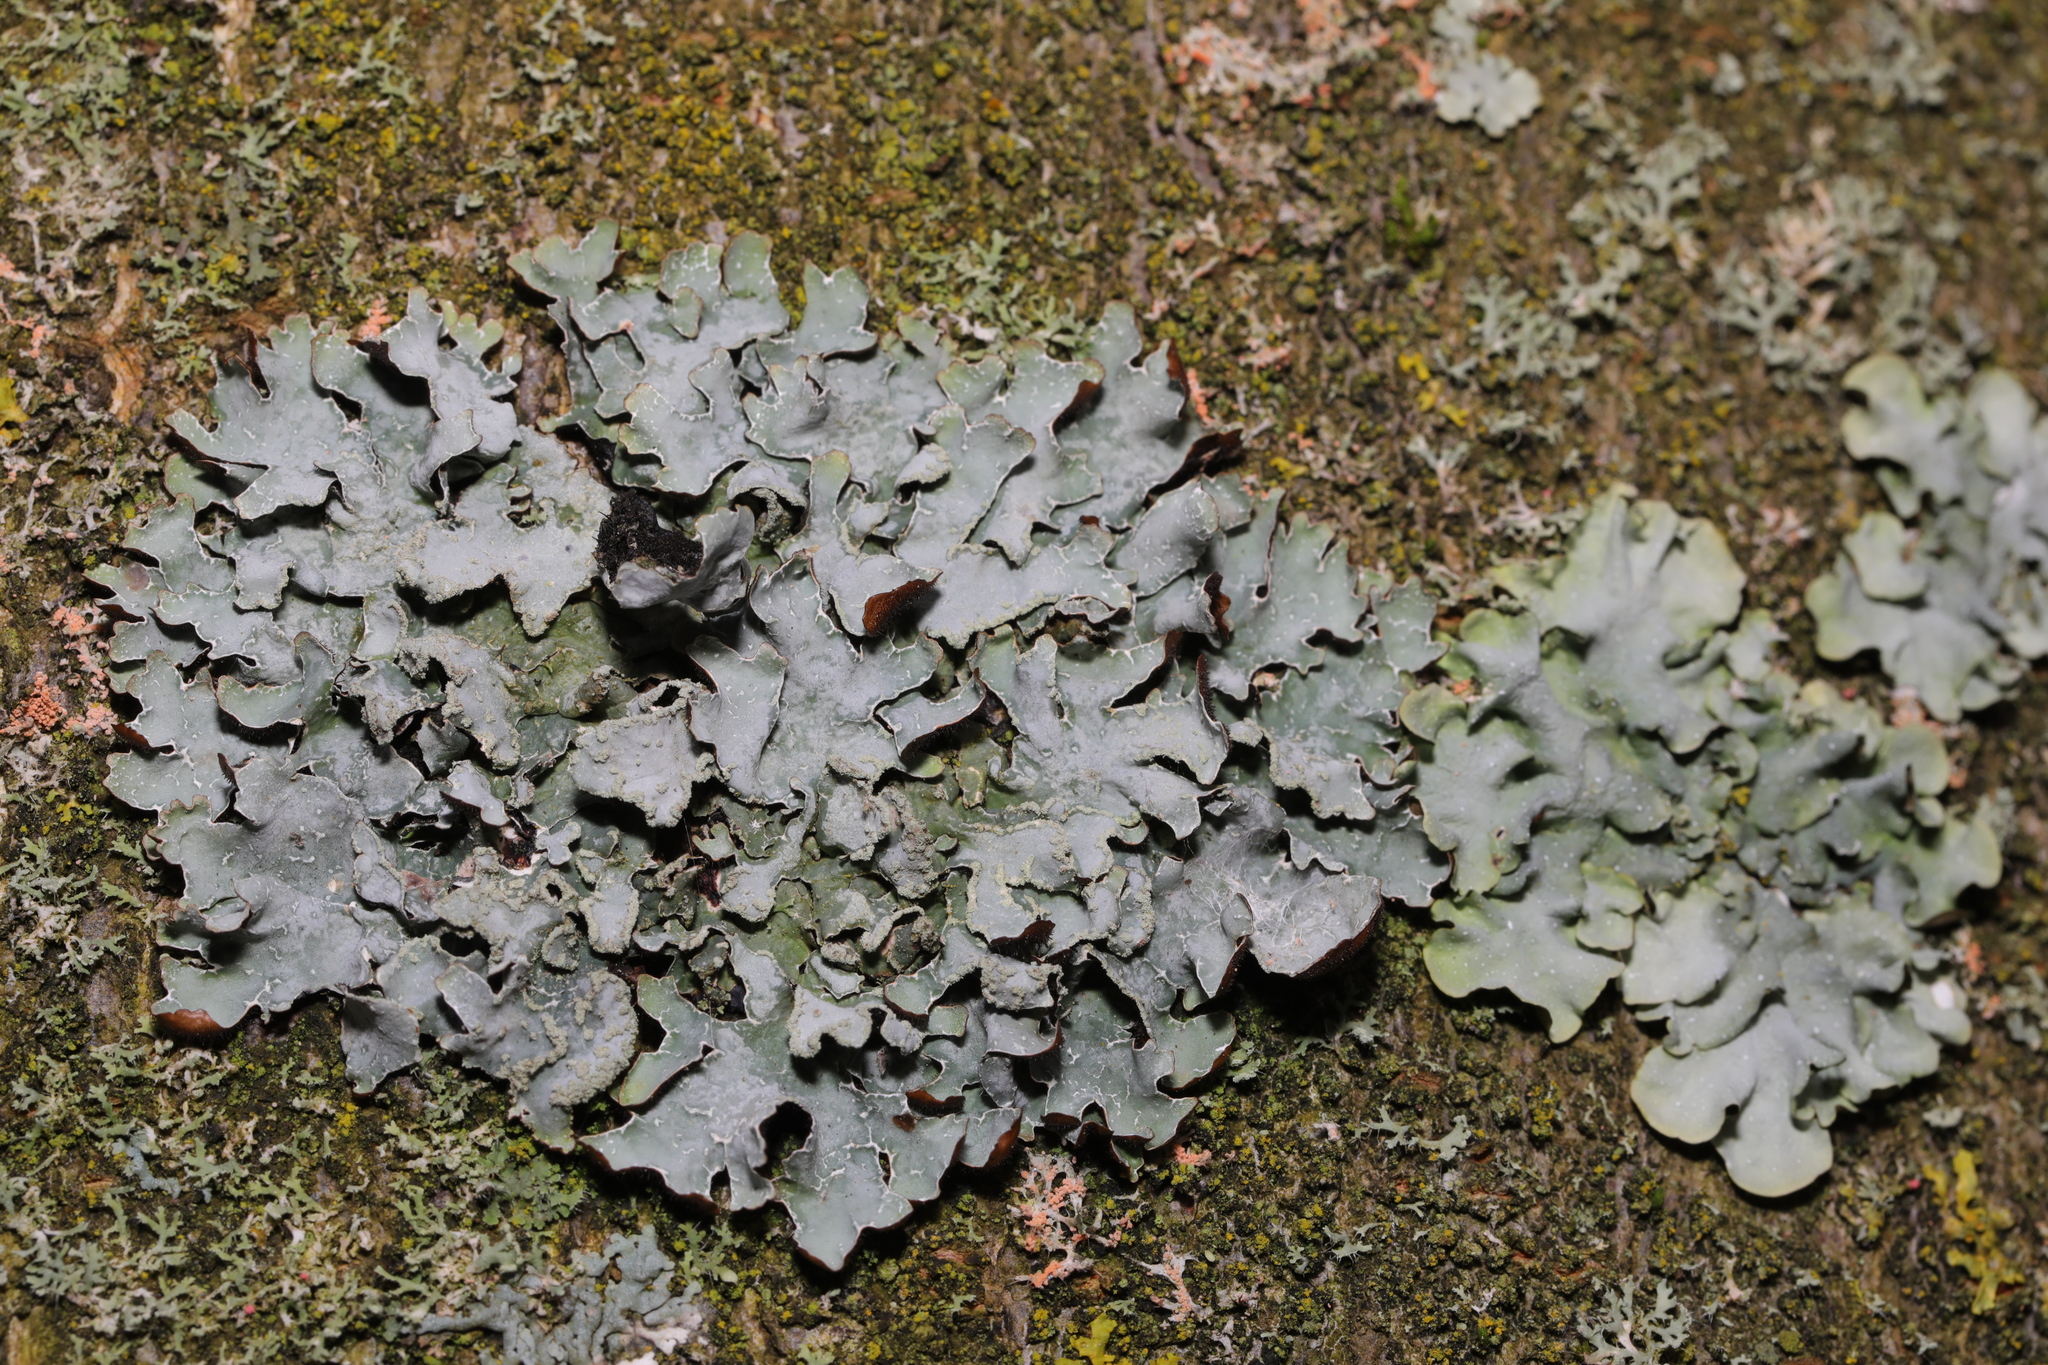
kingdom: Fungi
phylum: Ascomycota
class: Lecanoromycetes
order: Lecanorales
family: Parmeliaceae
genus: Parmelia
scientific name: Parmelia sulcata
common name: Netted shield lichen
